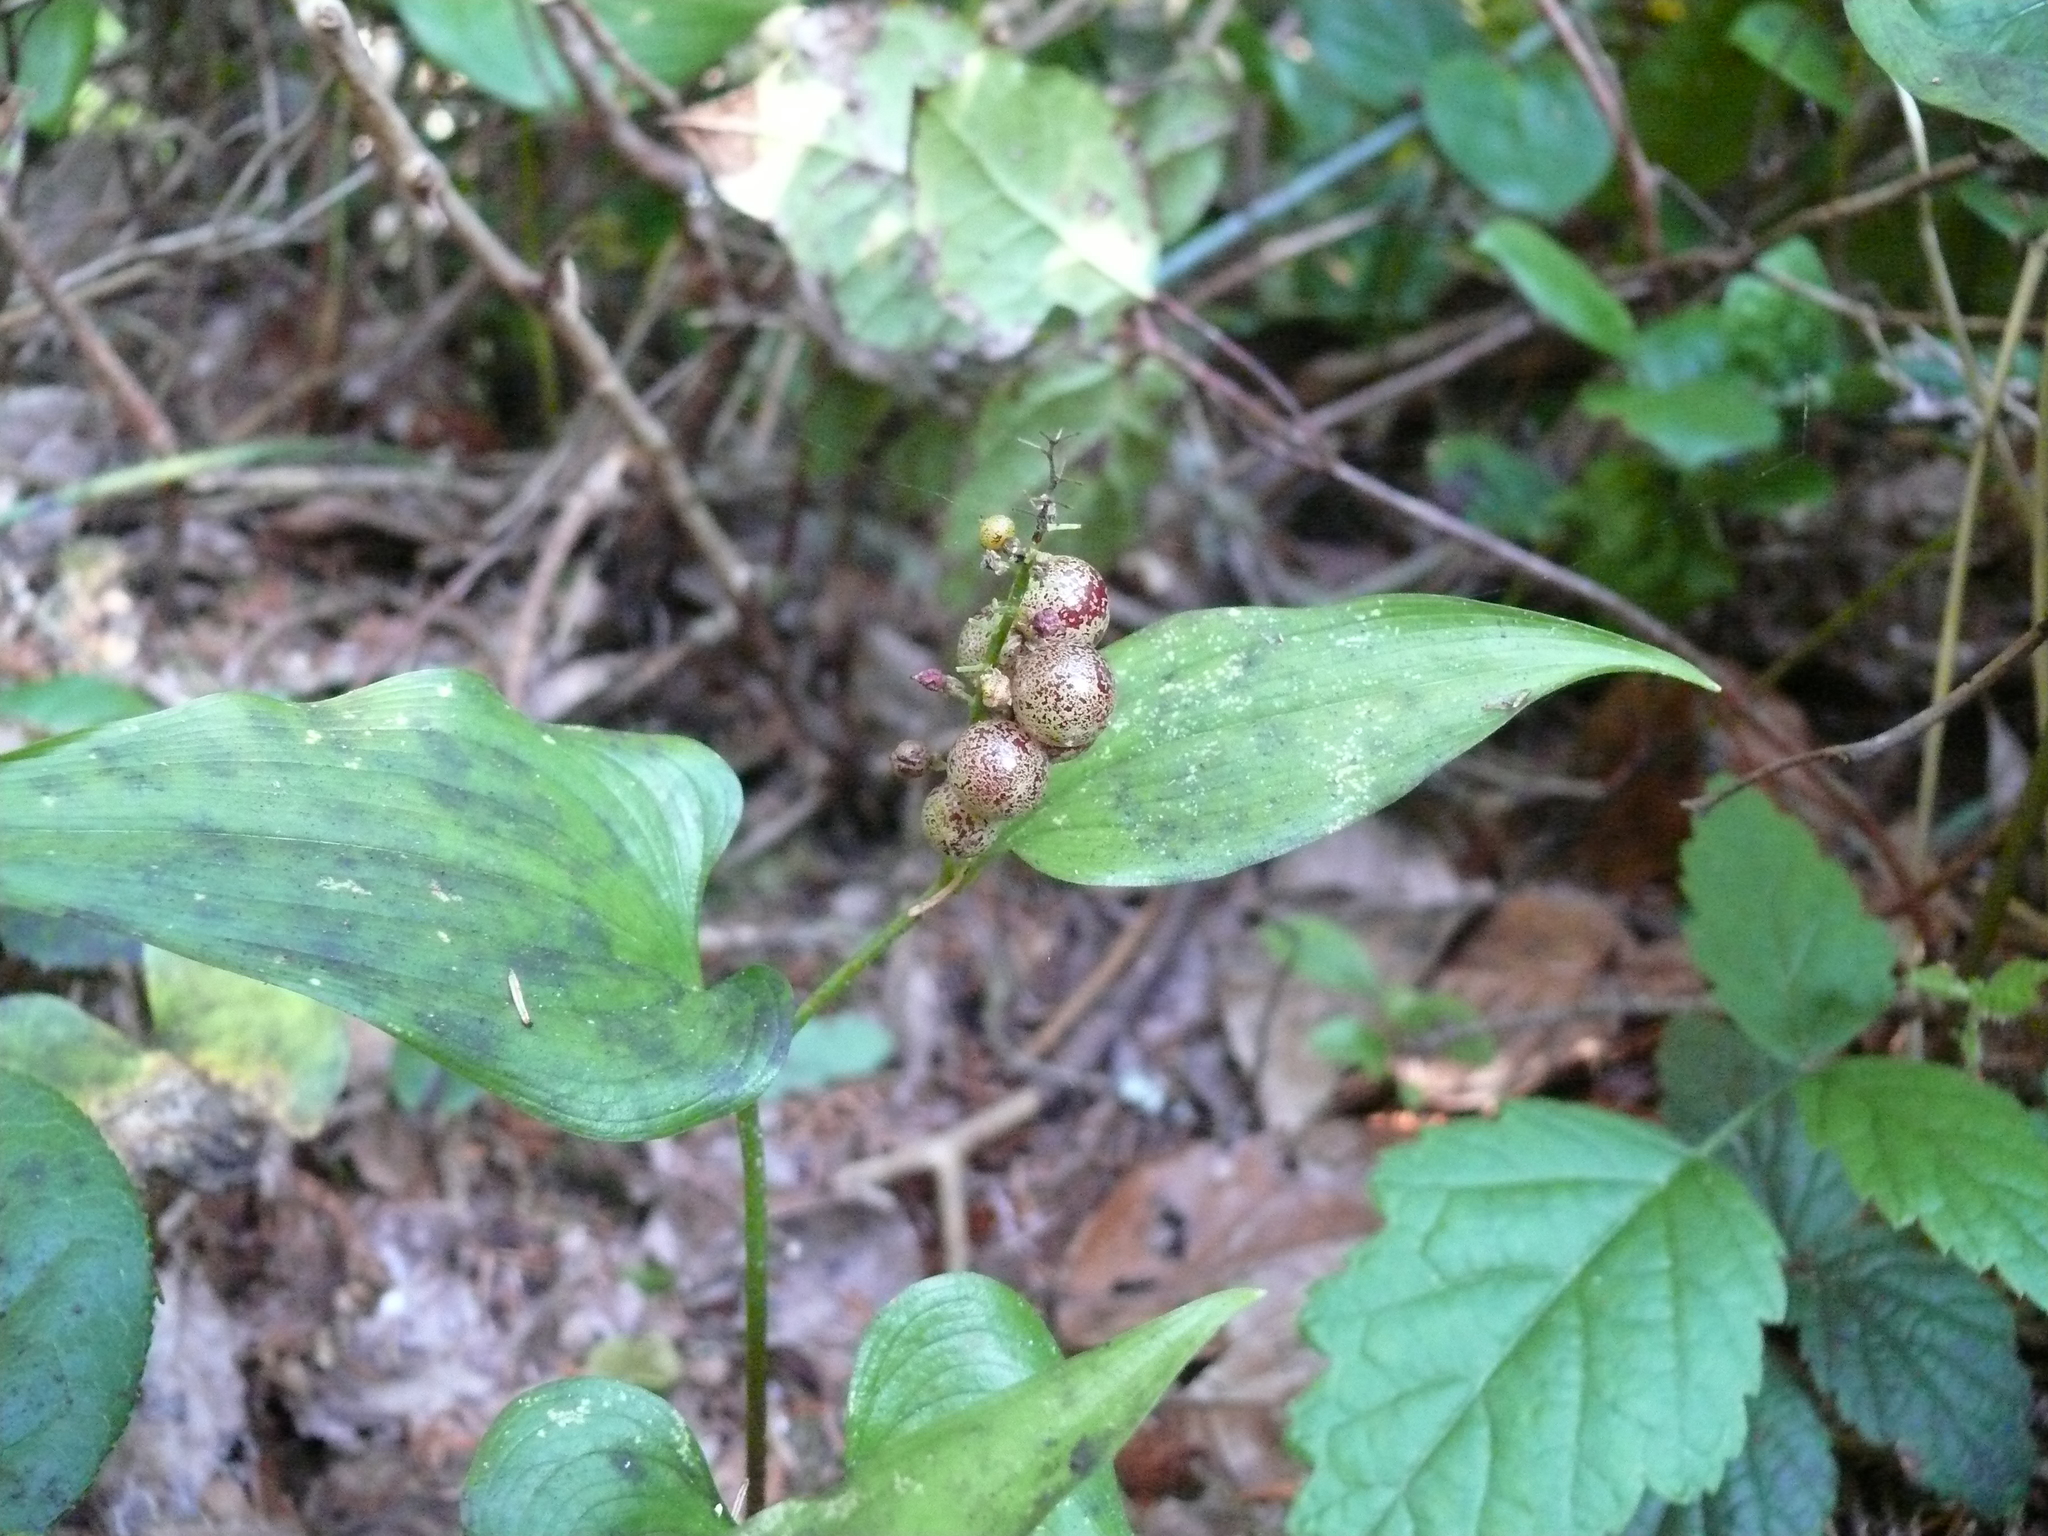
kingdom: Plantae
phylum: Tracheophyta
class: Liliopsida
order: Asparagales
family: Asparagaceae
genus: Maianthemum
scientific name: Maianthemum dilatatum
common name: False lily-of-the-valley
